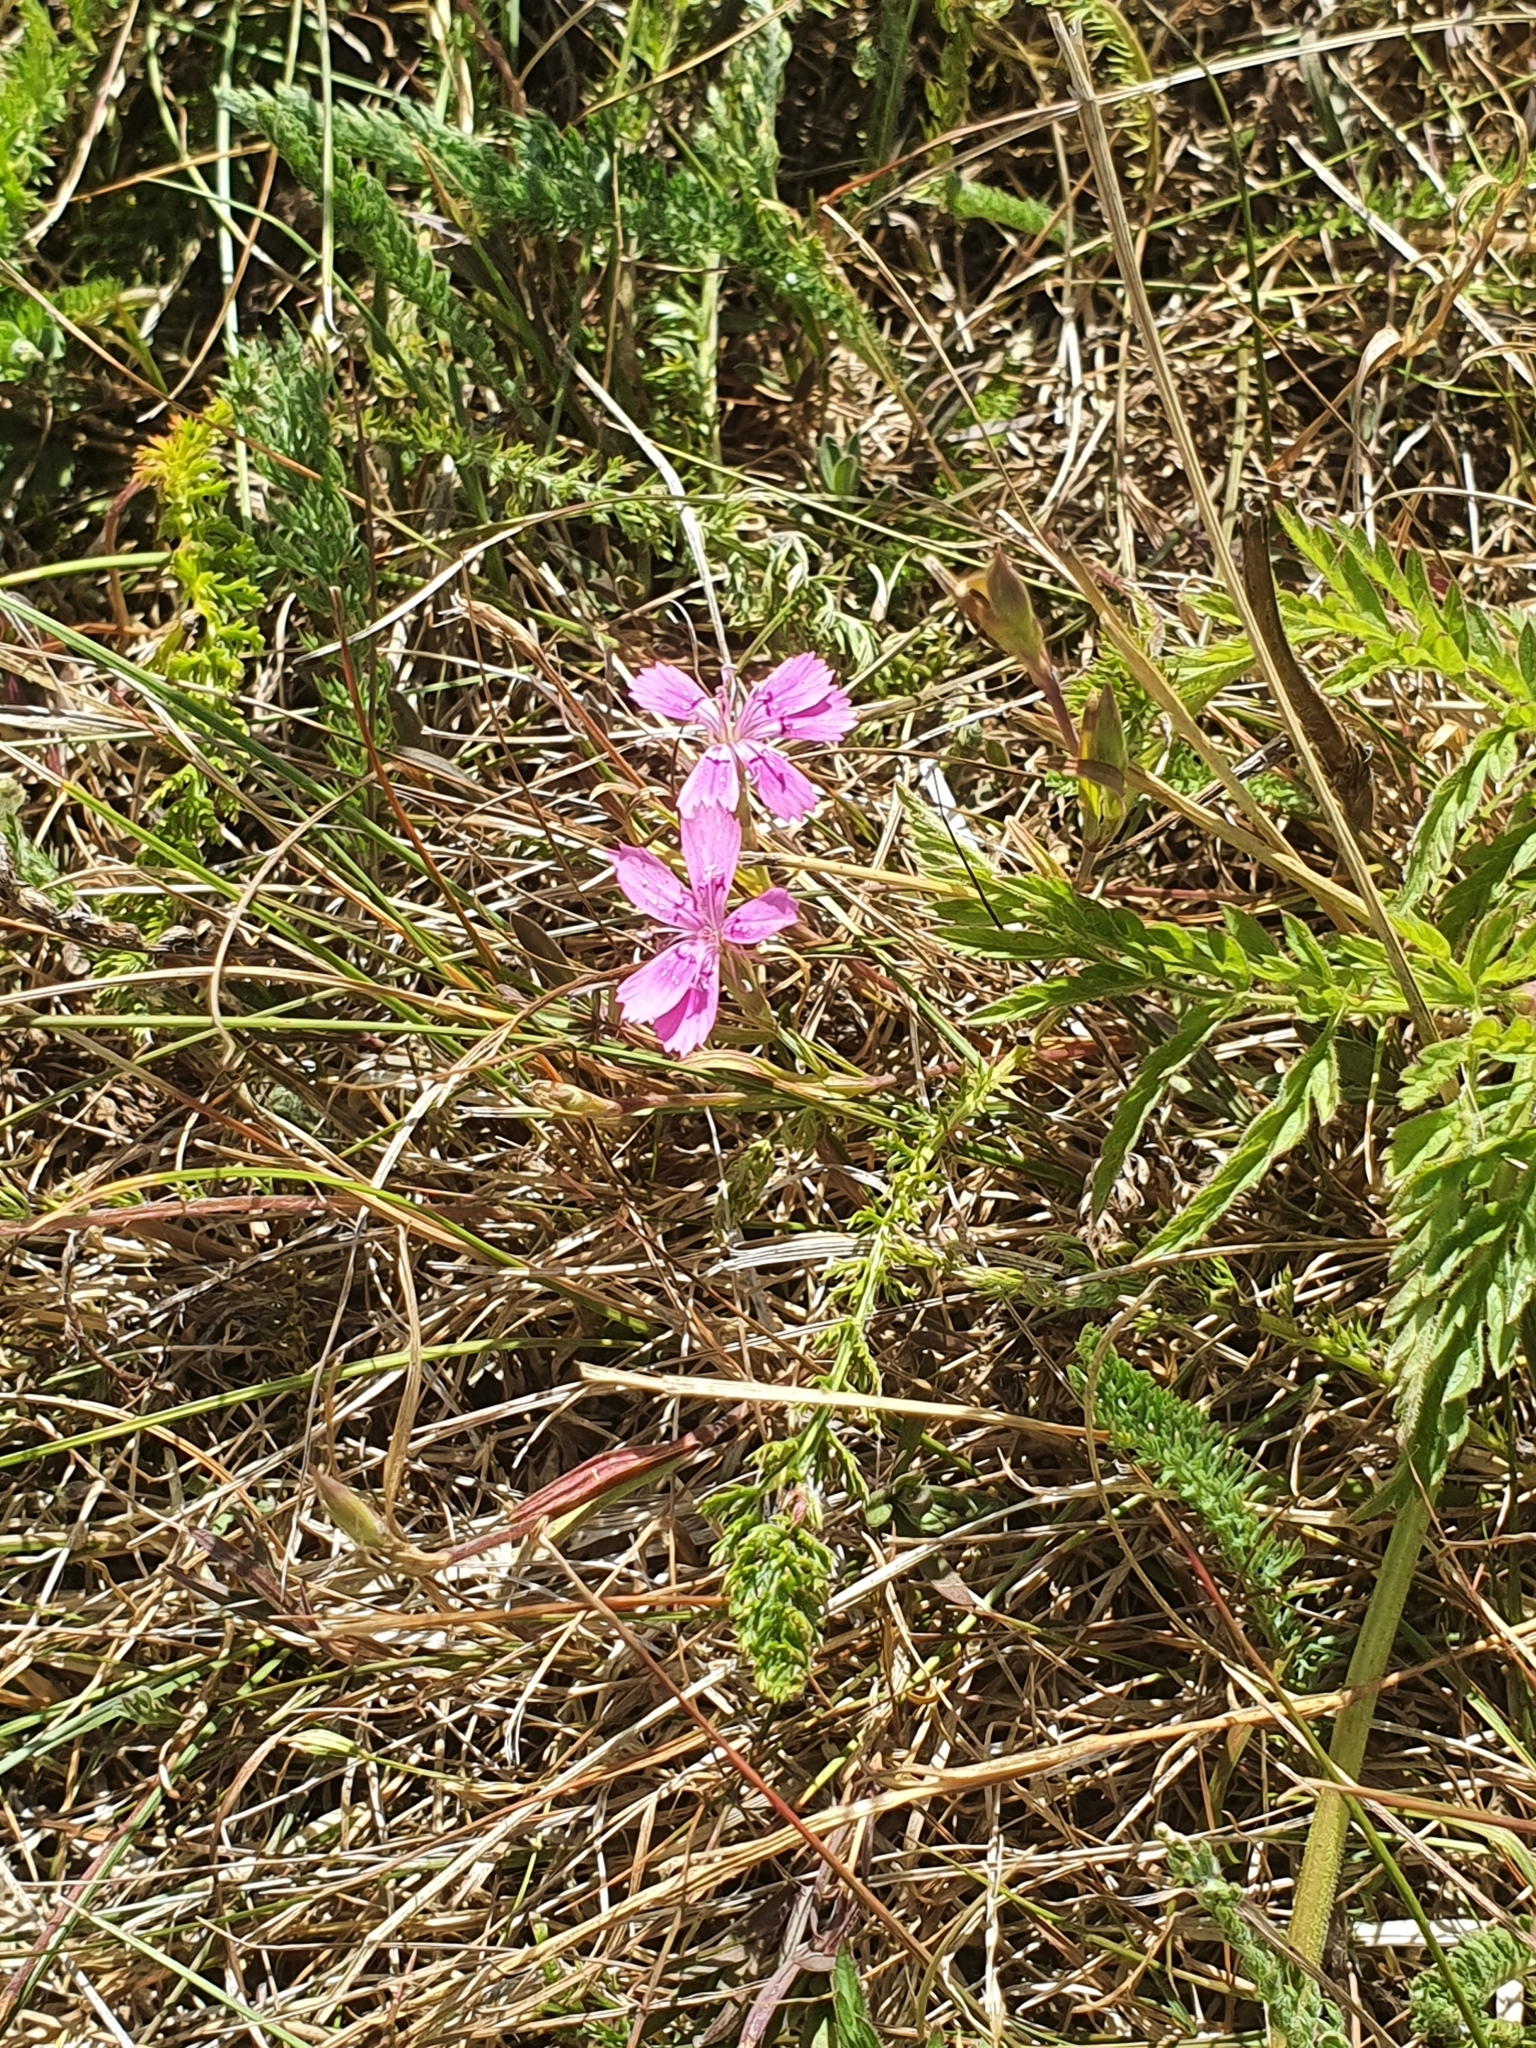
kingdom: Plantae
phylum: Tracheophyta
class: Magnoliopsida
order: Caryophyllales
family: Caryophyllaceae
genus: Dianthus
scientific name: Dianthus deltoides
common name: Maiden pink
